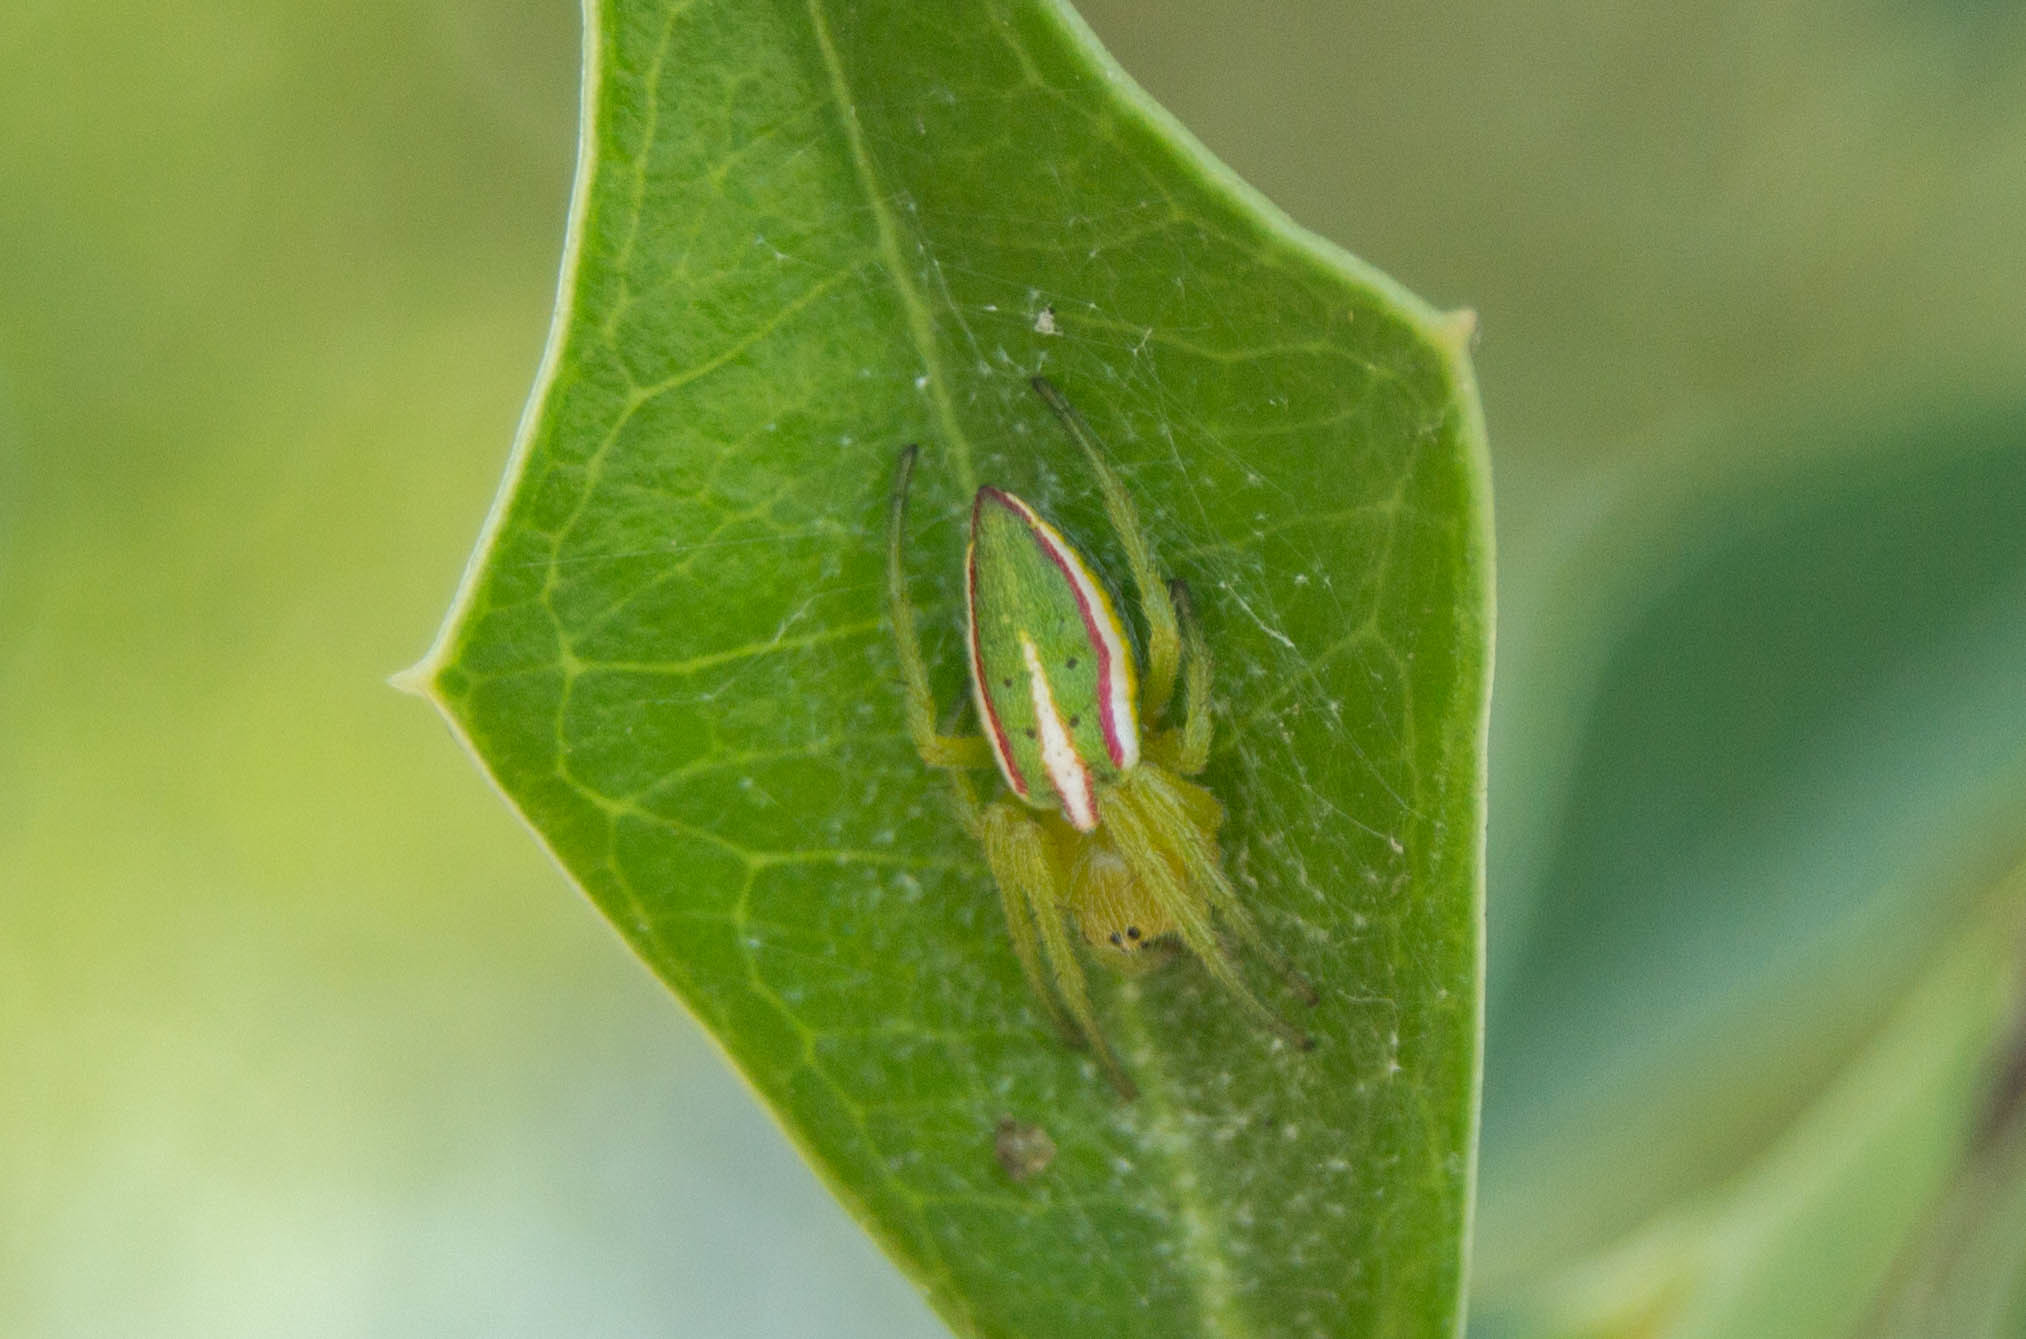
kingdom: Animalia
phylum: Arthropoda
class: Arachnida
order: Araneae
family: Araneidae
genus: Alpaida
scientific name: Alpaida rostratula
